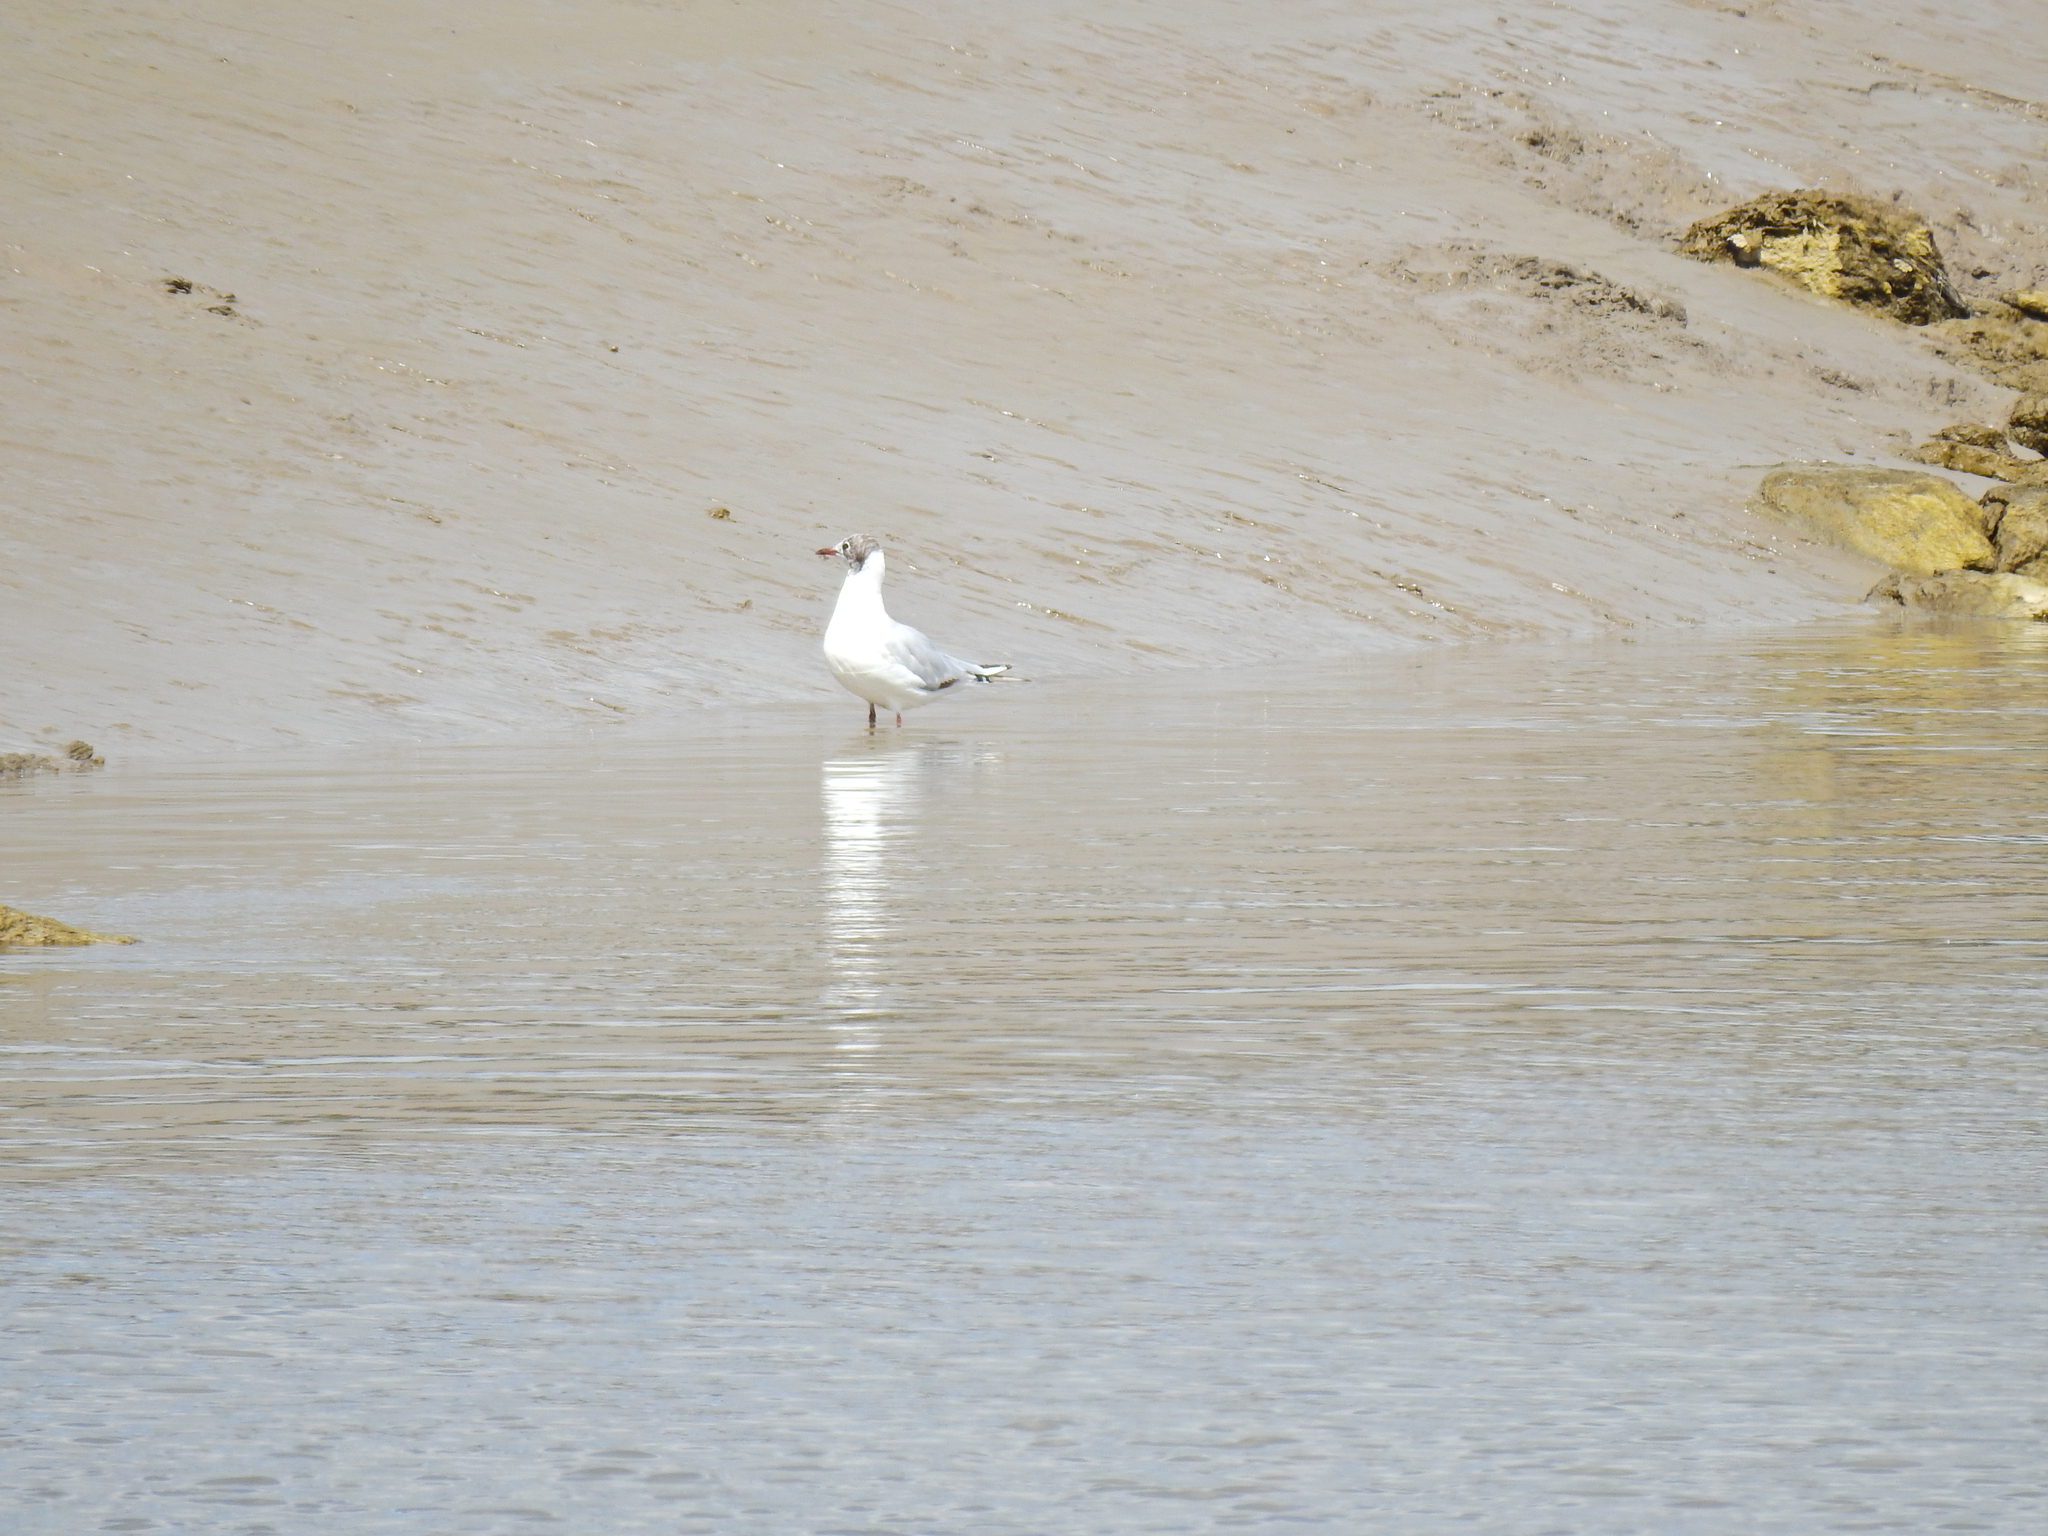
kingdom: Animalia
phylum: Chordata
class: Aves
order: Charadriiformes
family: Laridae
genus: Chroicocephalus
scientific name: Chroicocephalus ridibundus
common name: Black-headed gull
